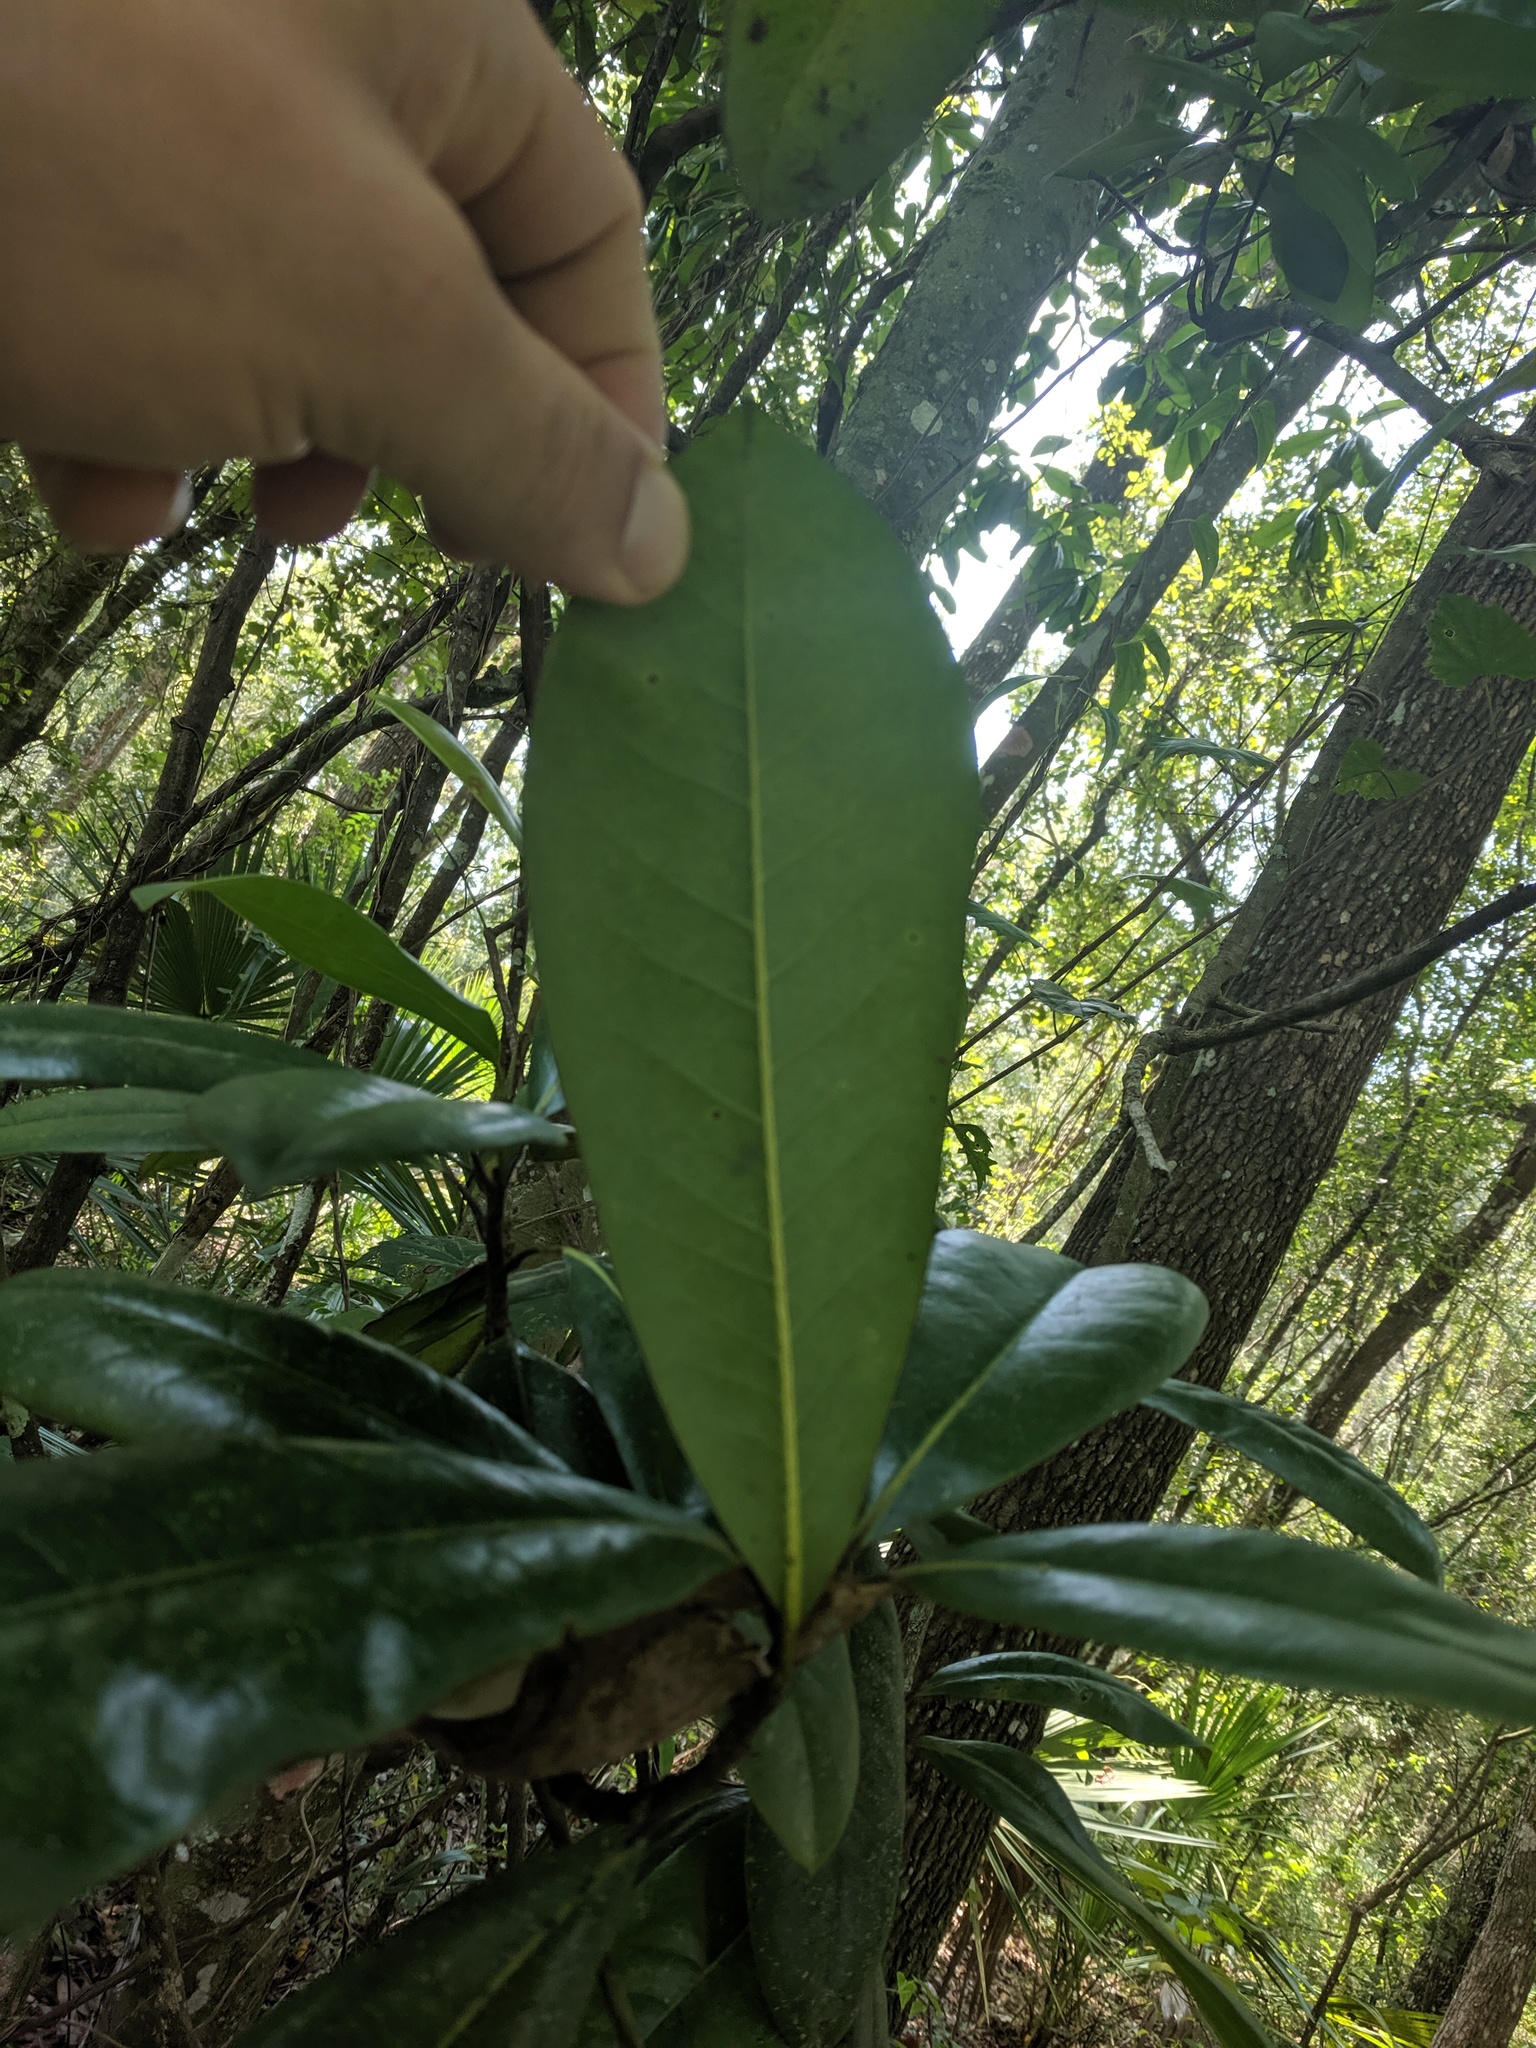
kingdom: Plantae
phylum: Tracheophyta
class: Magnoliopsida
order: Magnoliales
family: Magnoliaceae
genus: Magnolia
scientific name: Magnolia grandiflora
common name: Southern magnolia
